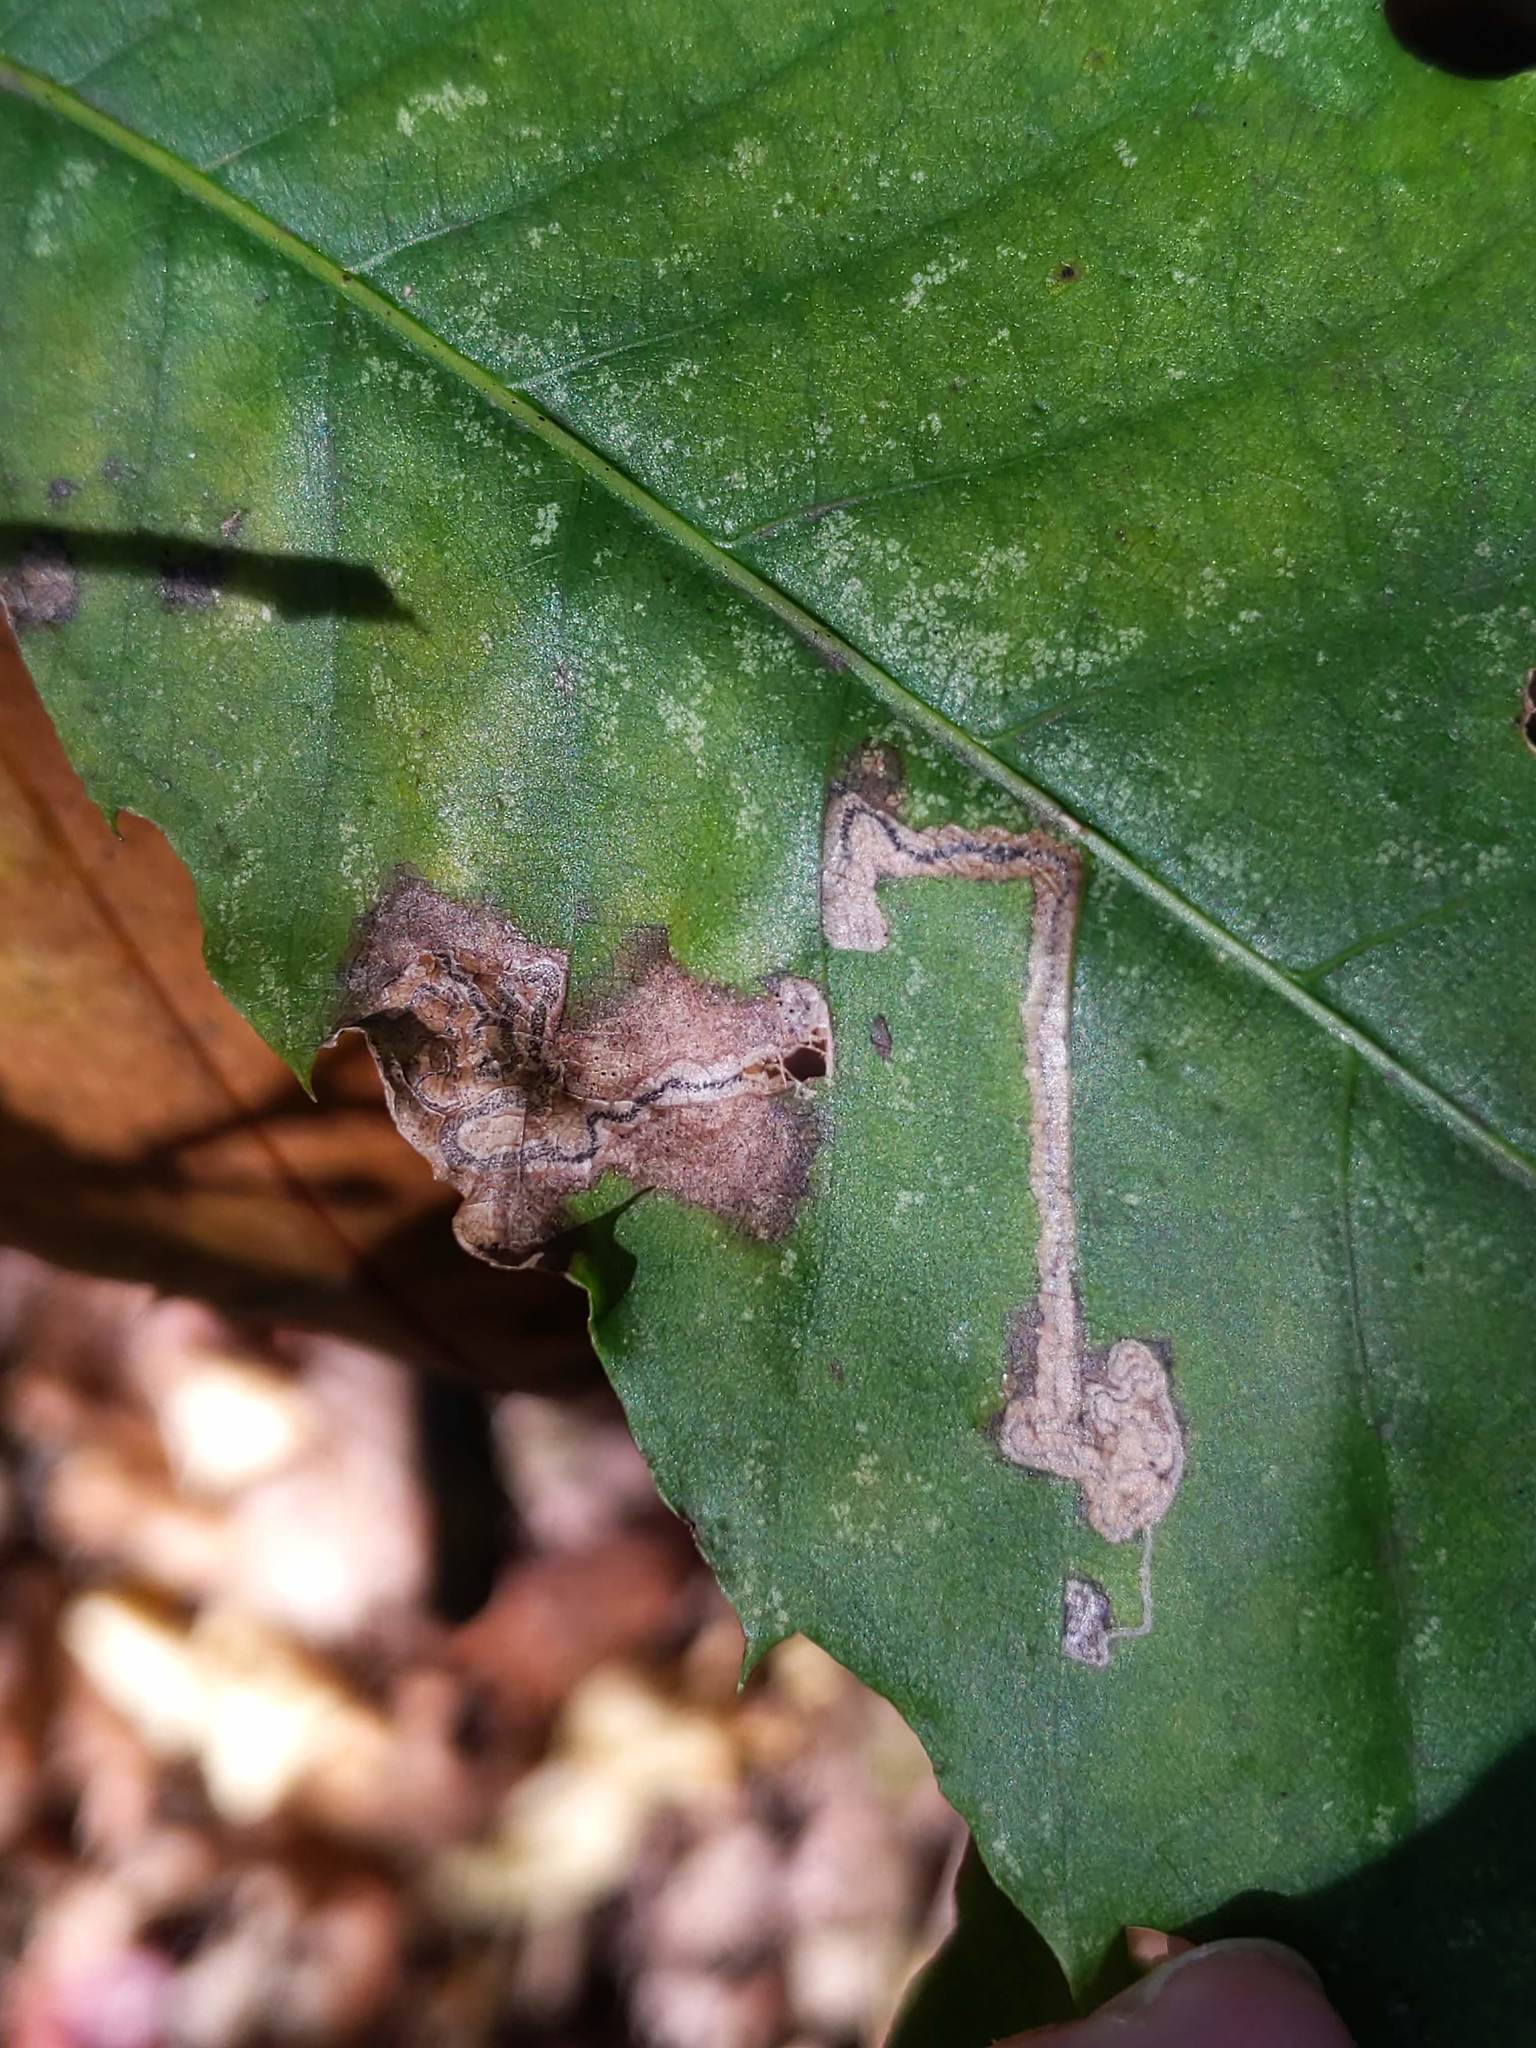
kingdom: Animalia
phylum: Arthropoda
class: Insecta
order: Lepidoptera
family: Nepticulidae
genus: Stigmella
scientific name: Stigmella
